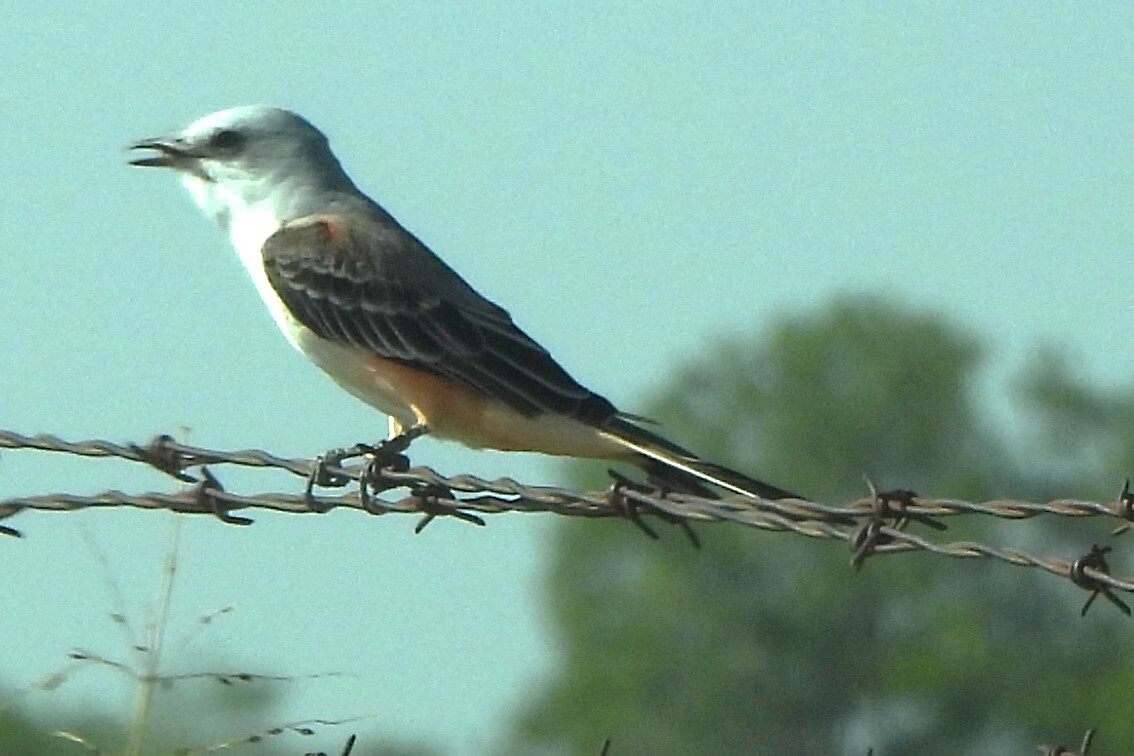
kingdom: Animalia
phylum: Chordata
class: Aves
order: Passeriformes
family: Tyrannidae
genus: Tyrannus
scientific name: Tyrannus forficatus
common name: Scissor-tailed flycatcher
